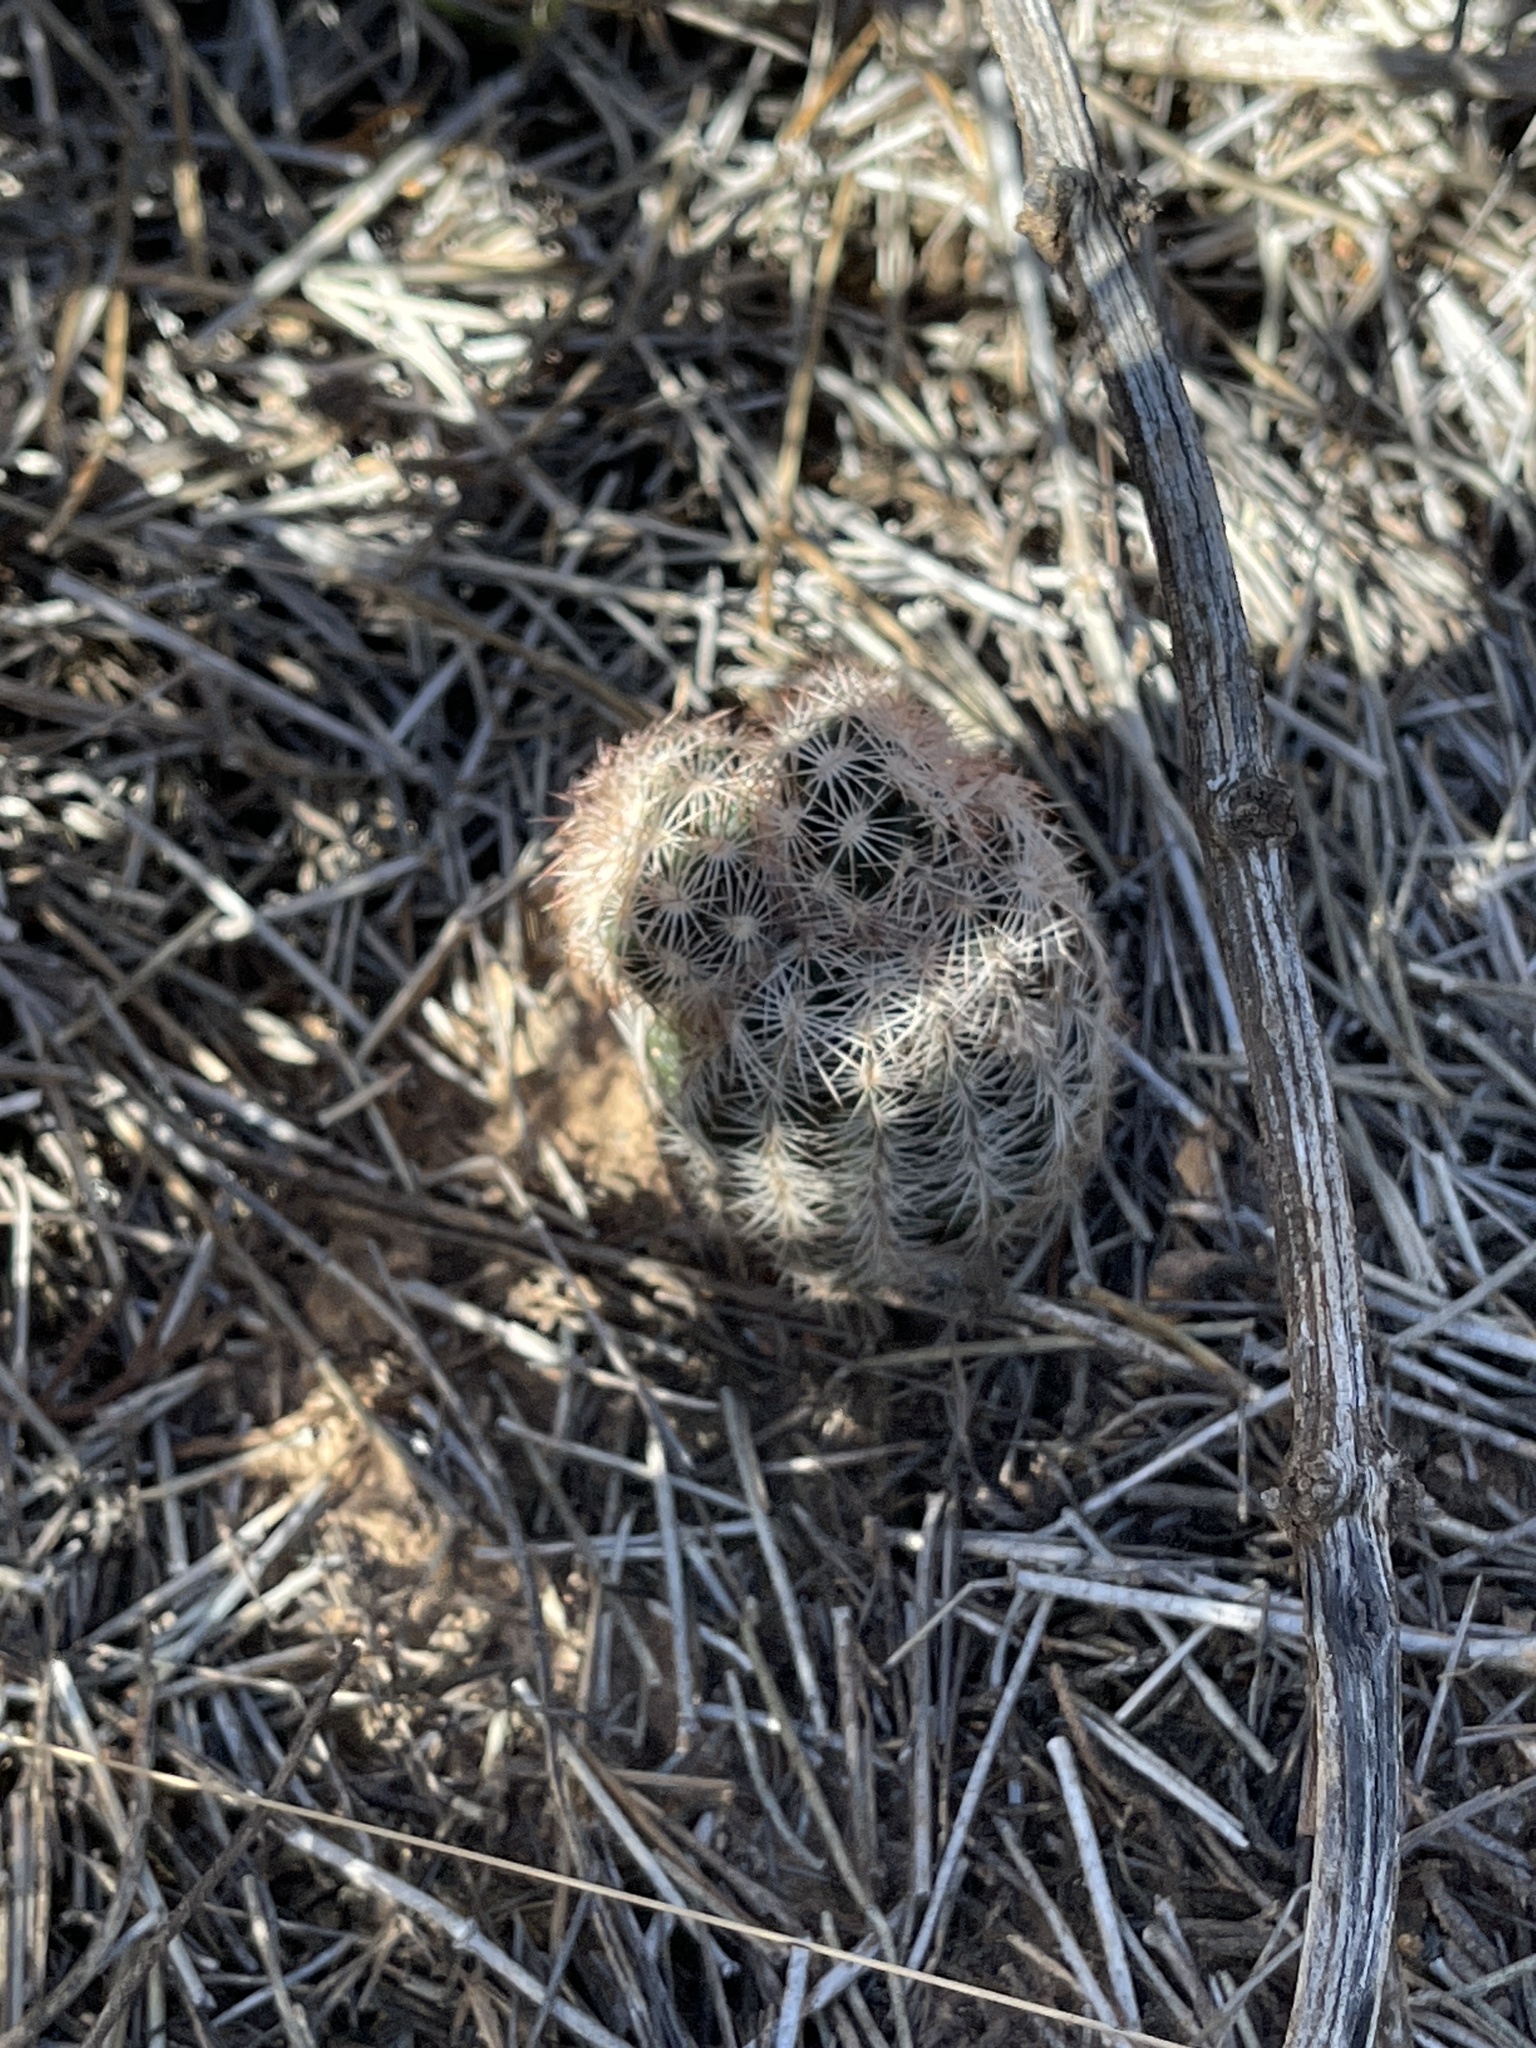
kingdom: Plantae
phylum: Tracheophyta
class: Magnoliopsida
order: Caryophyllales
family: Cactaceae
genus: Echinocereus
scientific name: Echinocereus reichenbachii
